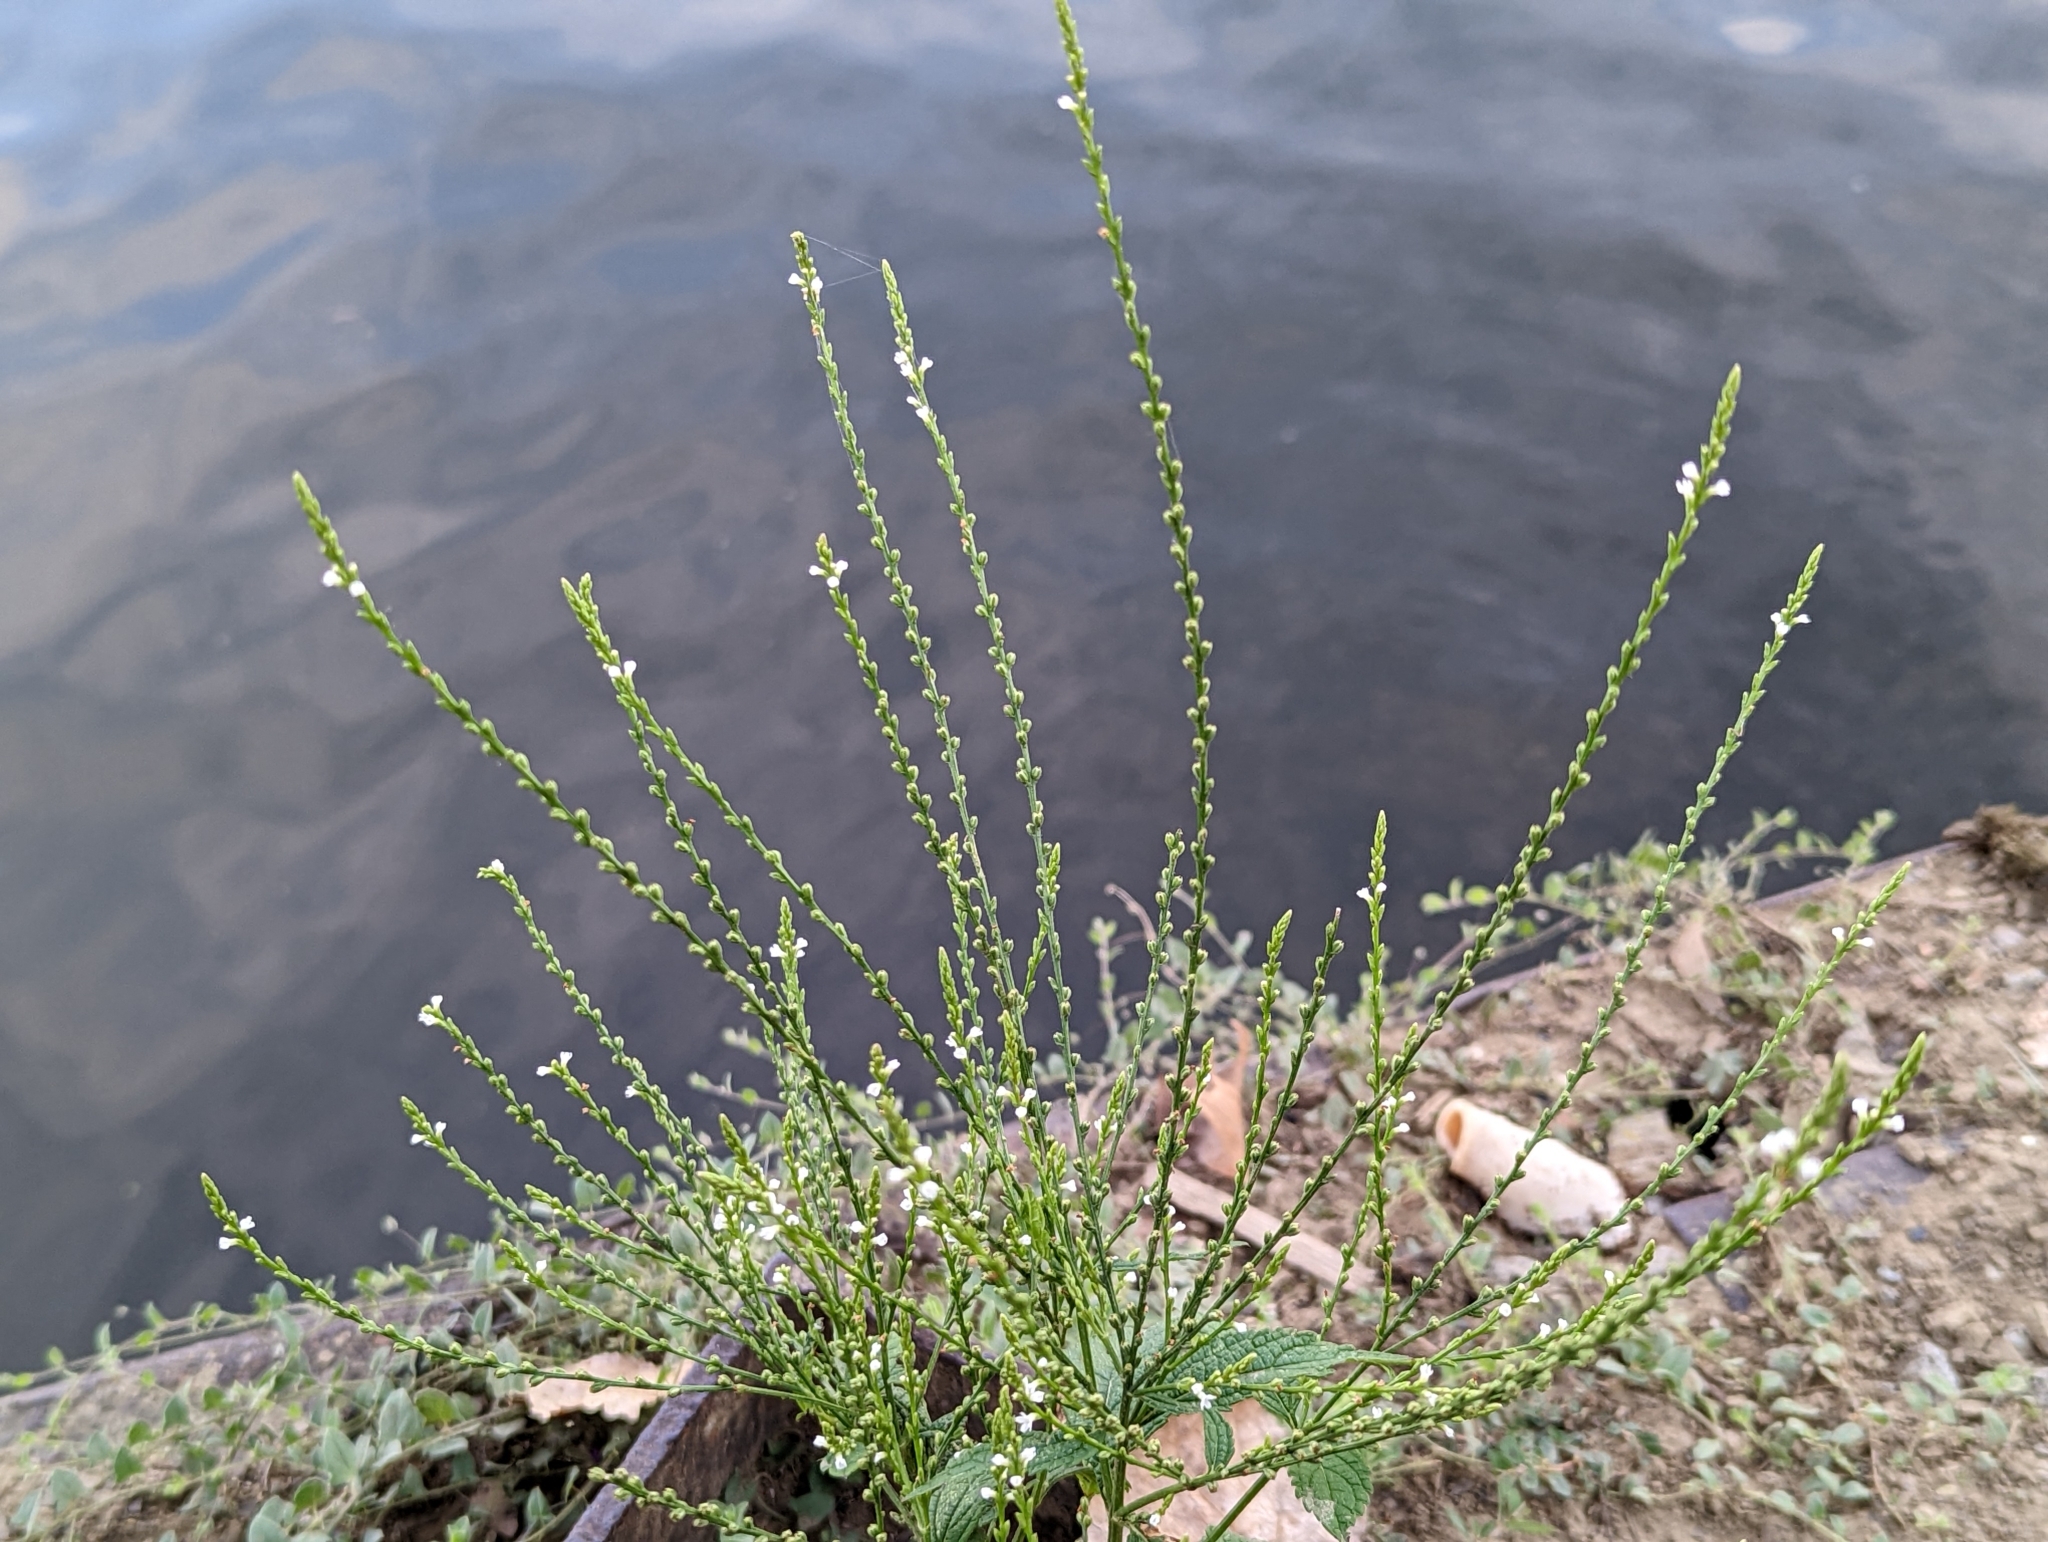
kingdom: Plantae
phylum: Tracheophyta
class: Magnoliopsida
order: Lamiales
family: Verbenaceae
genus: Verbena
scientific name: Verbena urticifolia
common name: Nettle-leaved vervain
